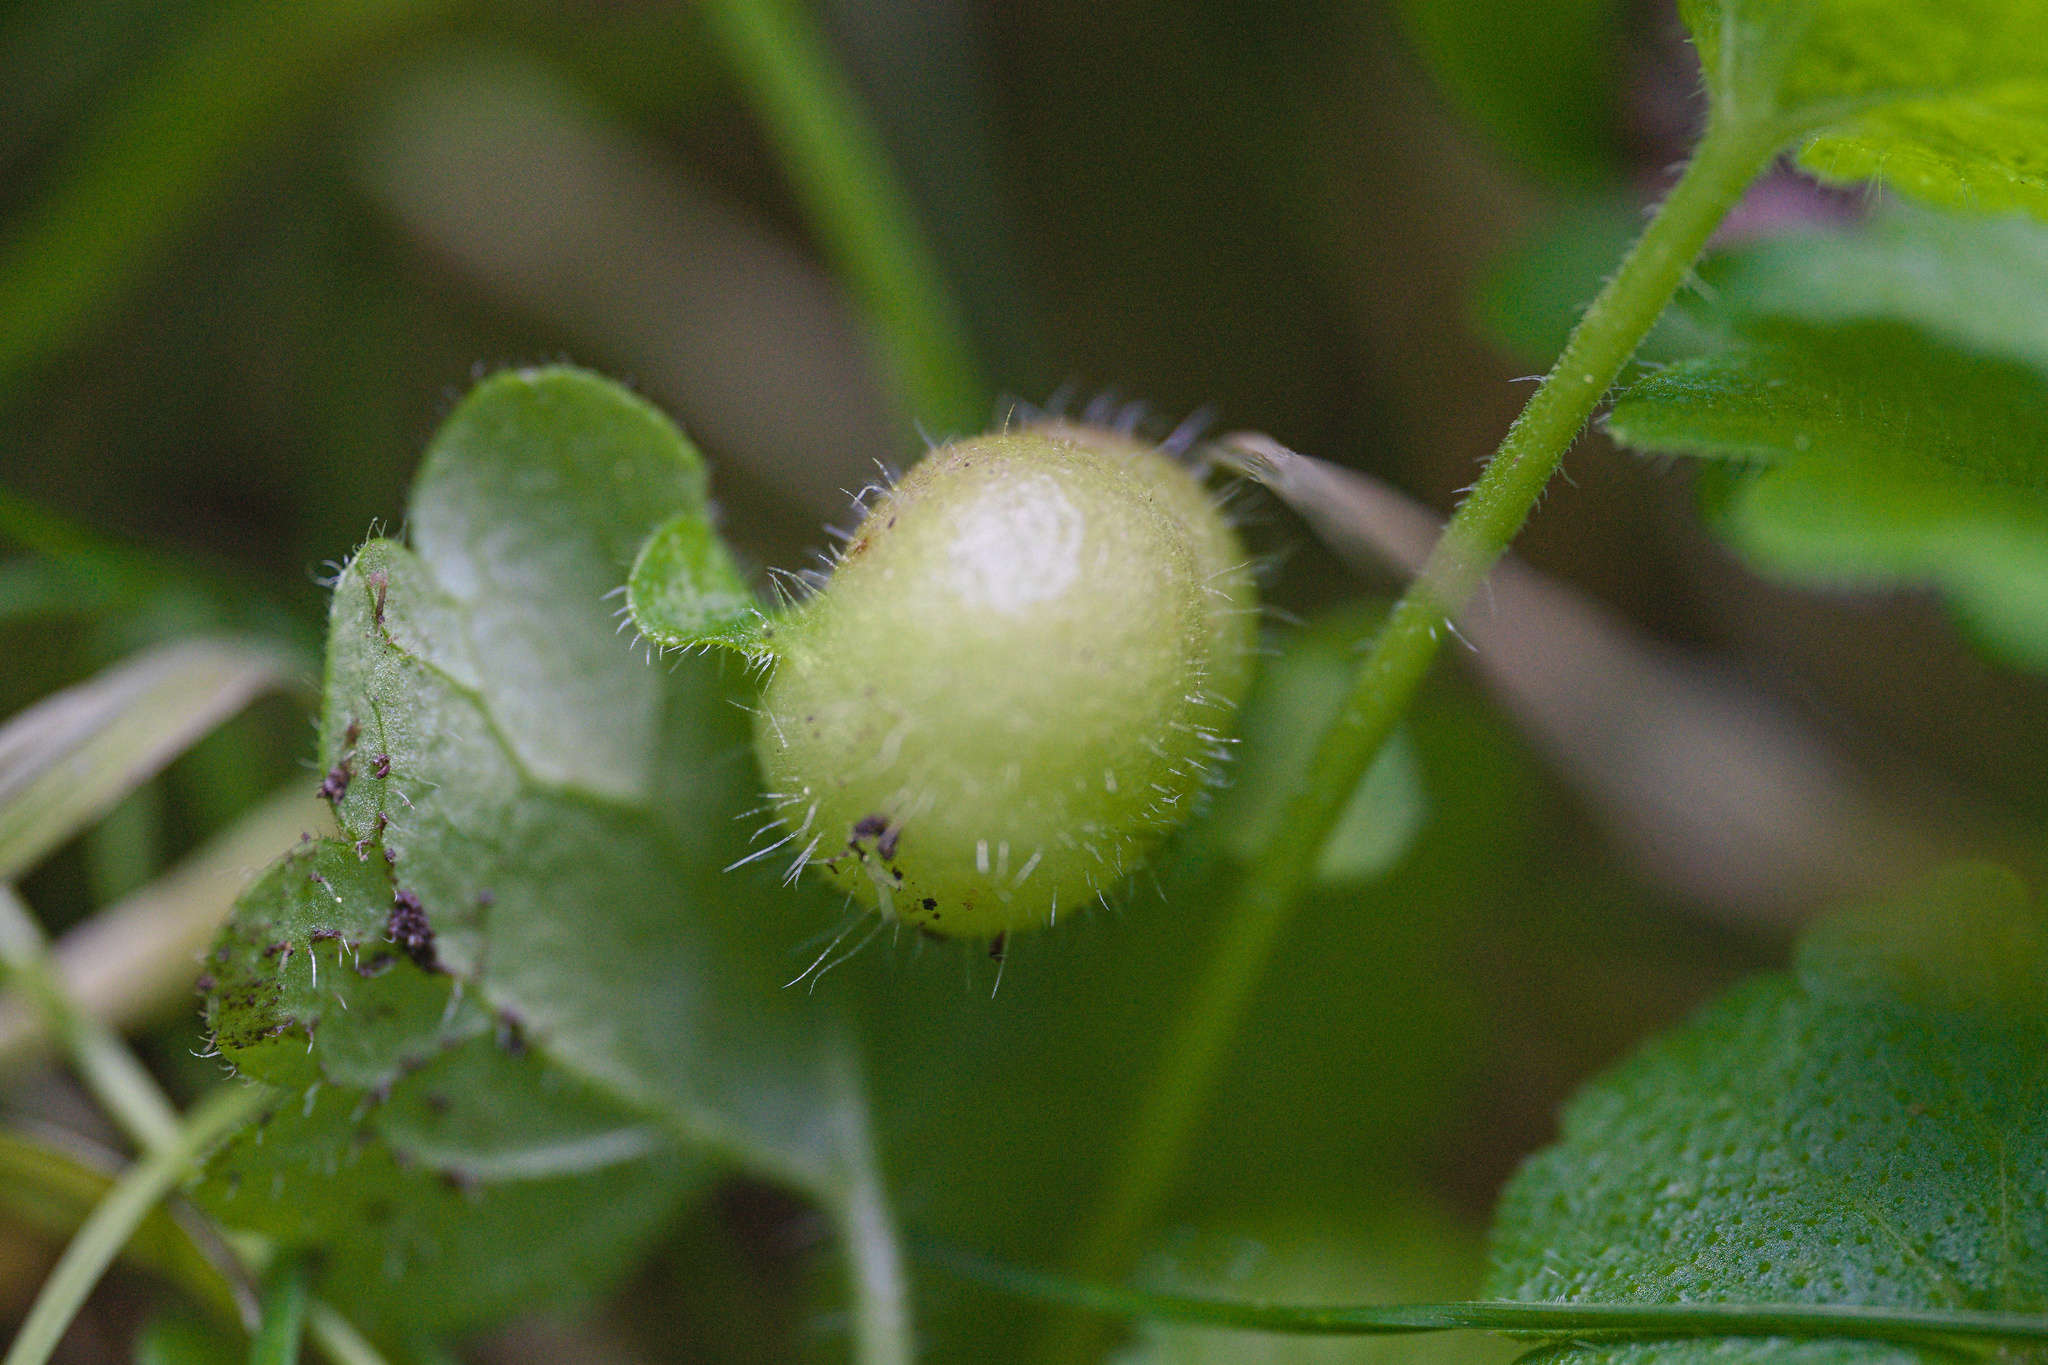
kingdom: Animalia
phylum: Arthropoda
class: Insecta
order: Hymenoptera
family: Cynipidae
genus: Liposthenes
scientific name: Liposthenes glechomae
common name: Gall wasp
